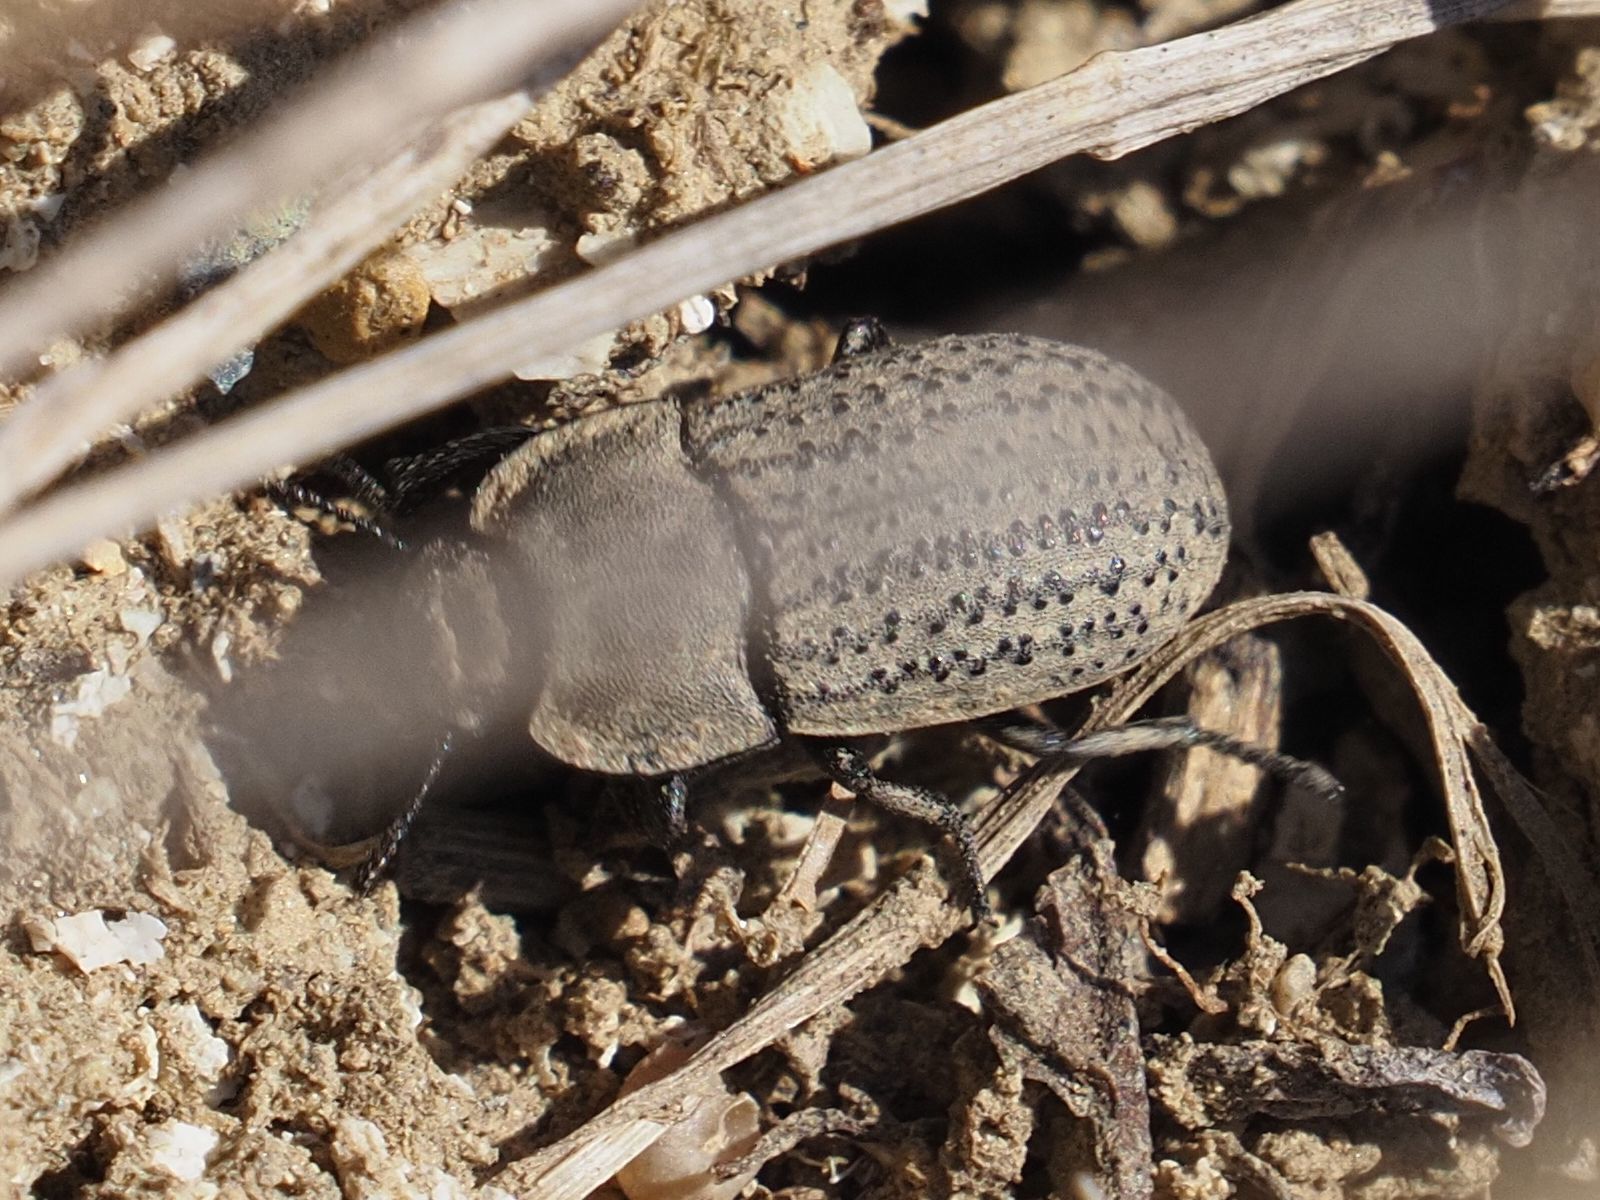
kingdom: Animalia
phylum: Arthropoda
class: Insecta
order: Coleoptera
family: Tenebrionidae
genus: Opatrum
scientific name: Opatrum sabulosum
